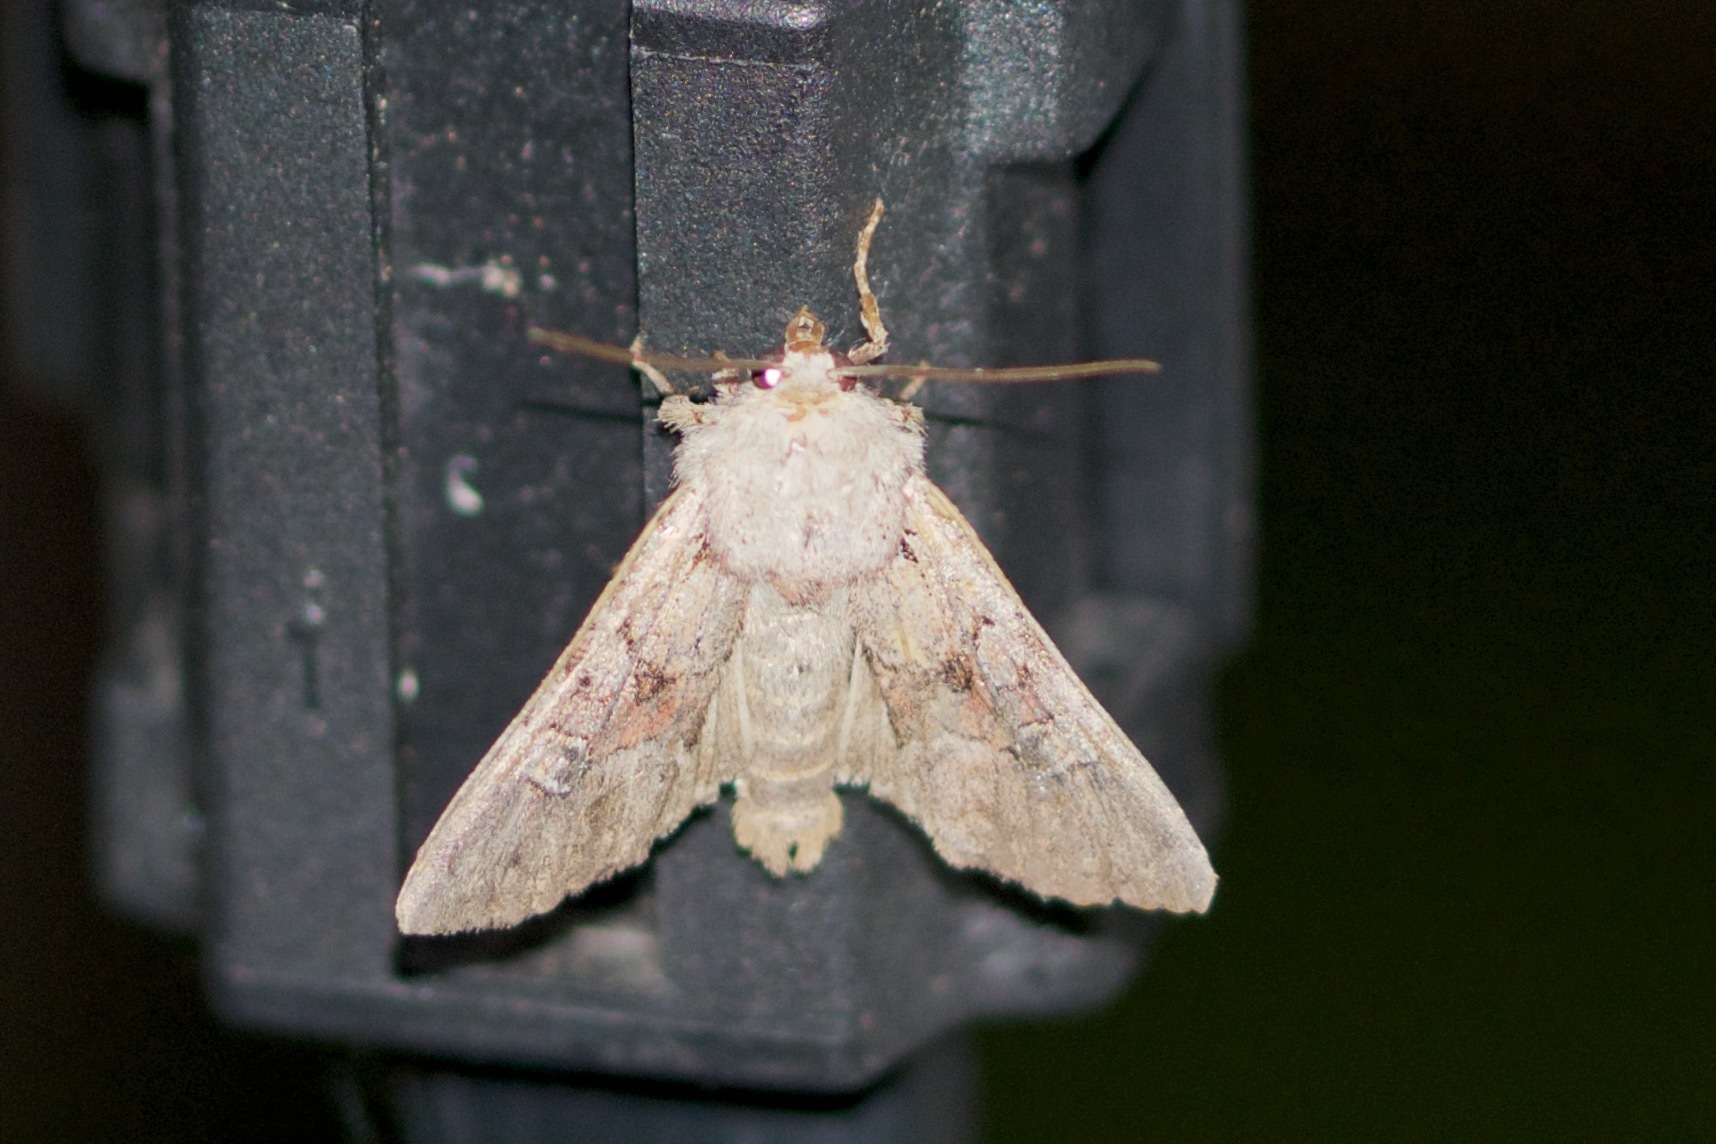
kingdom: Animalia
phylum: Arthropoda
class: Insecta
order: Lepidoptera
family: Noctuidae
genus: Apamea
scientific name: Apamea sordens
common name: Rustic shoulder-knot
